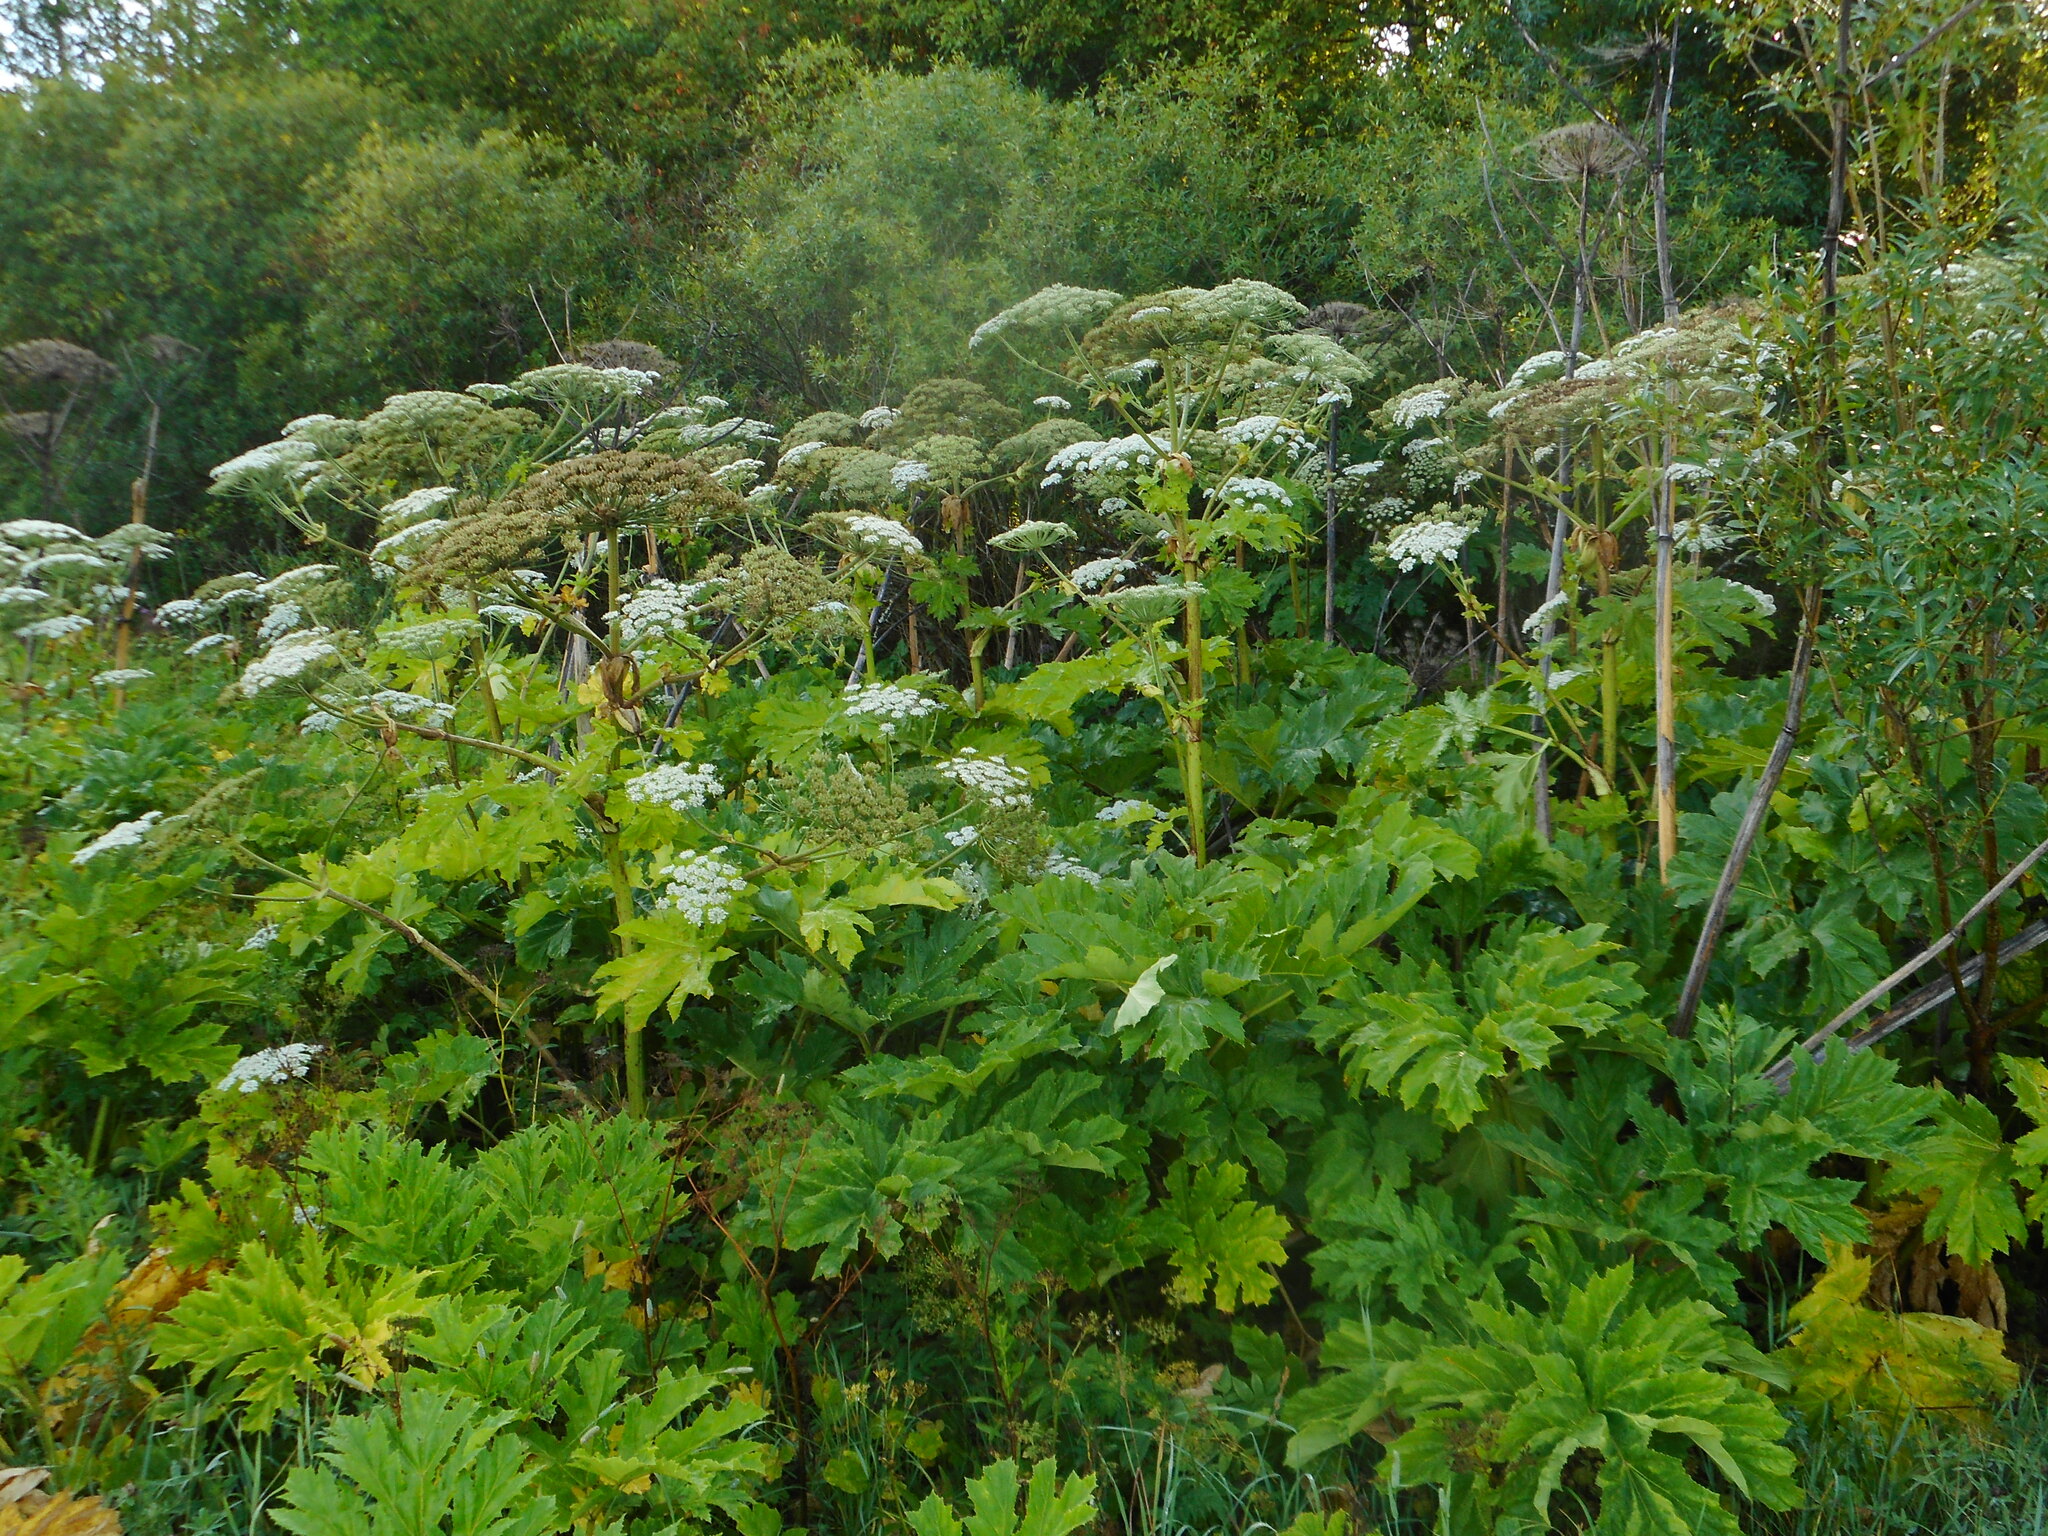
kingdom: Plantae
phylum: Tracheophyta
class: Magnoliopsida
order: Apiales
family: Apiaceae
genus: Heracleum
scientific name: Heracleum sosnowskyi
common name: Sosnowsky's hogweed
